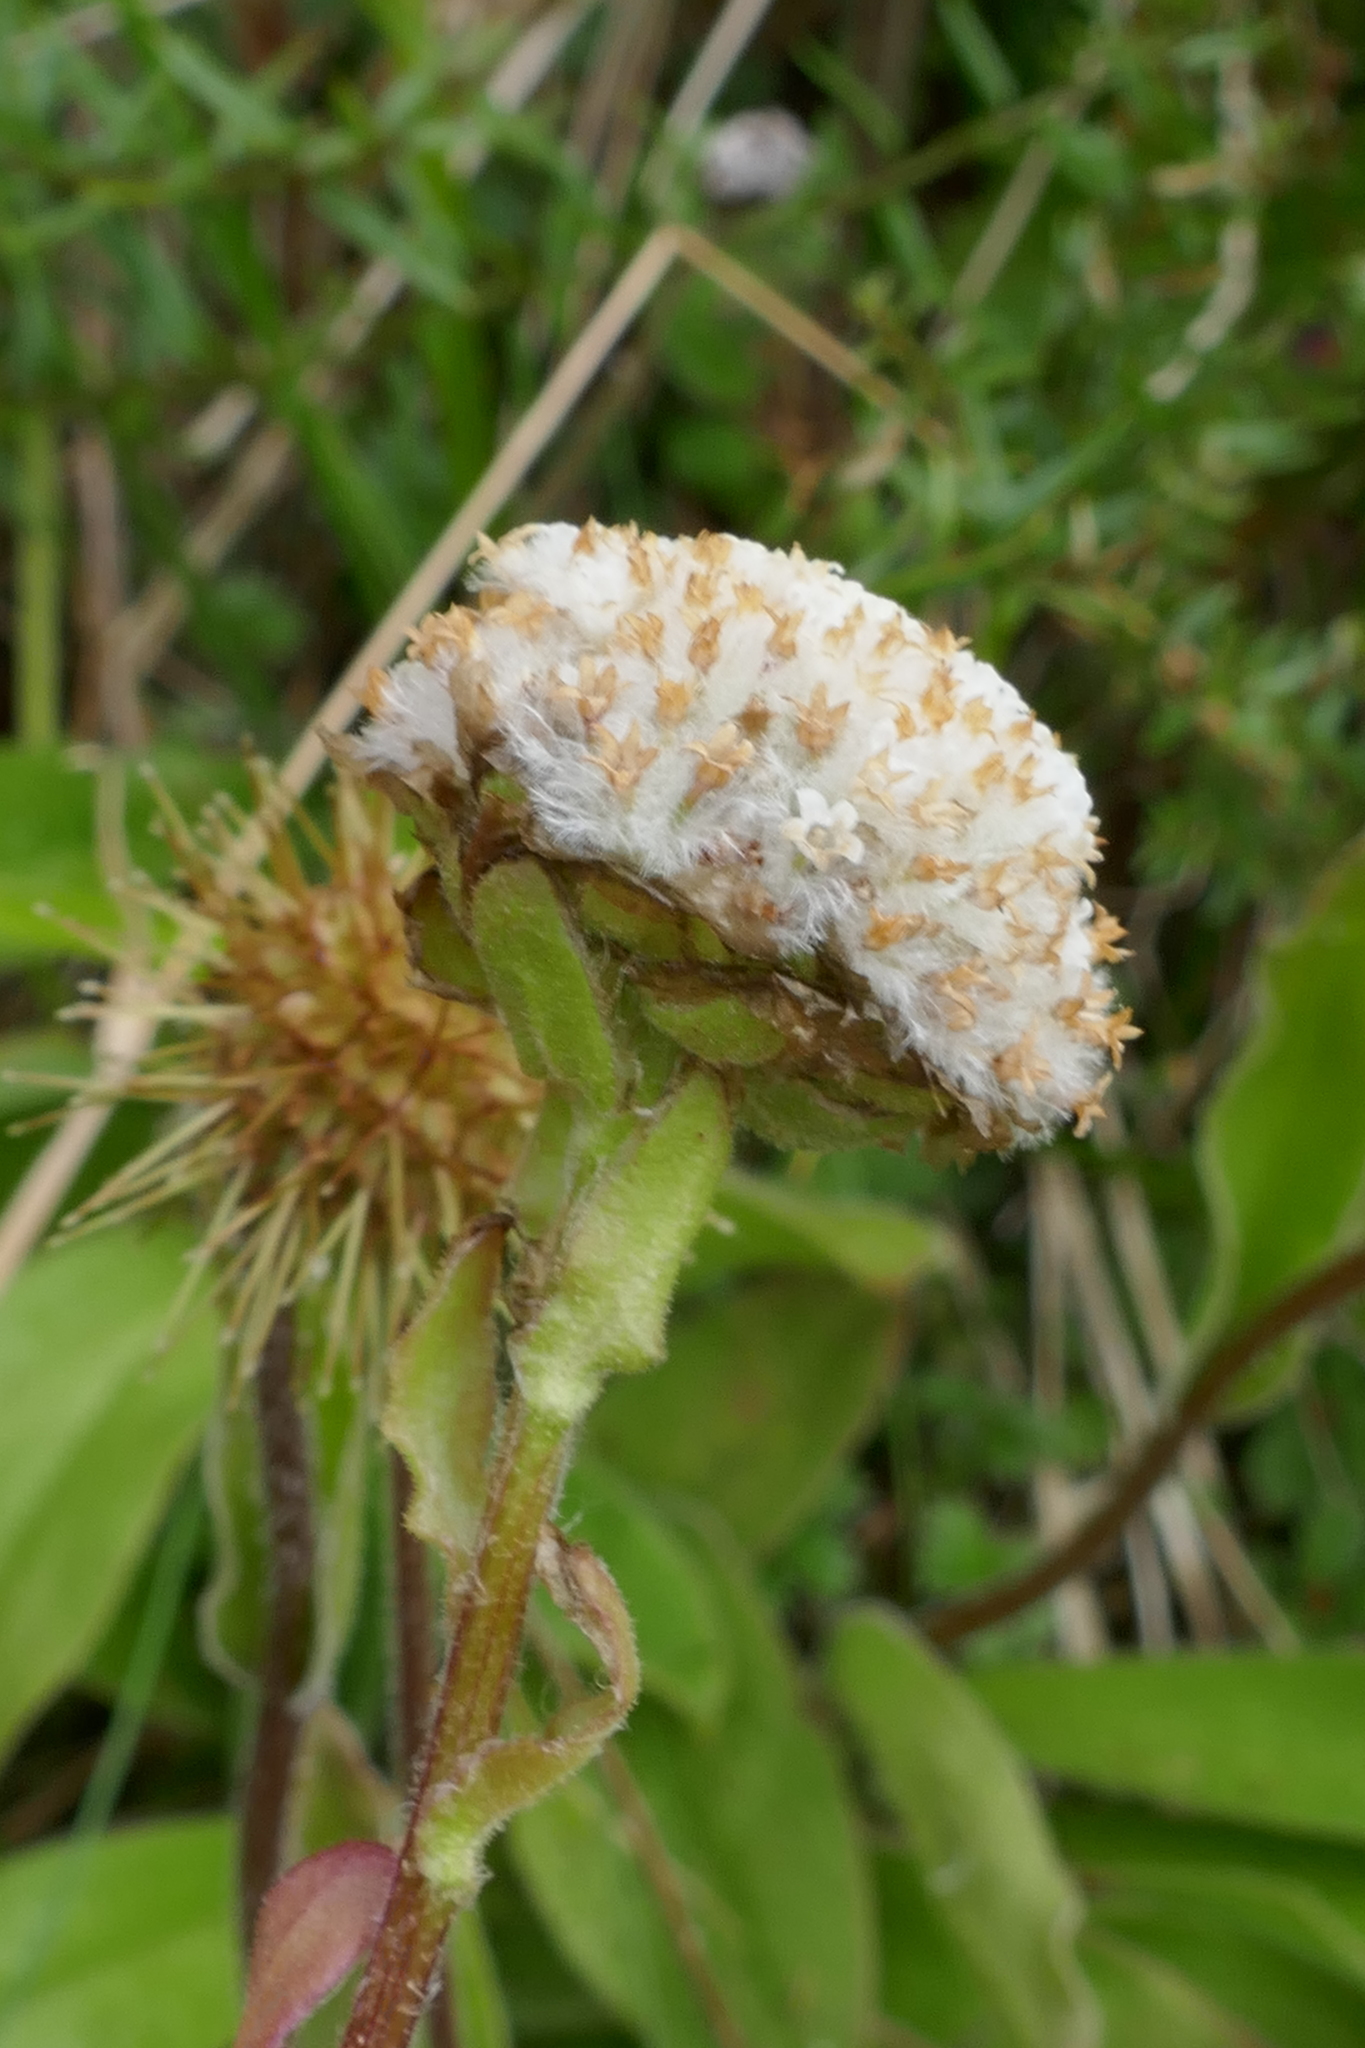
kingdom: Plantae
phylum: Tracheophyta
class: Magnoliopsida
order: Asterales
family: Asteraceae
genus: Craspedia
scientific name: Craspedia uniflora
